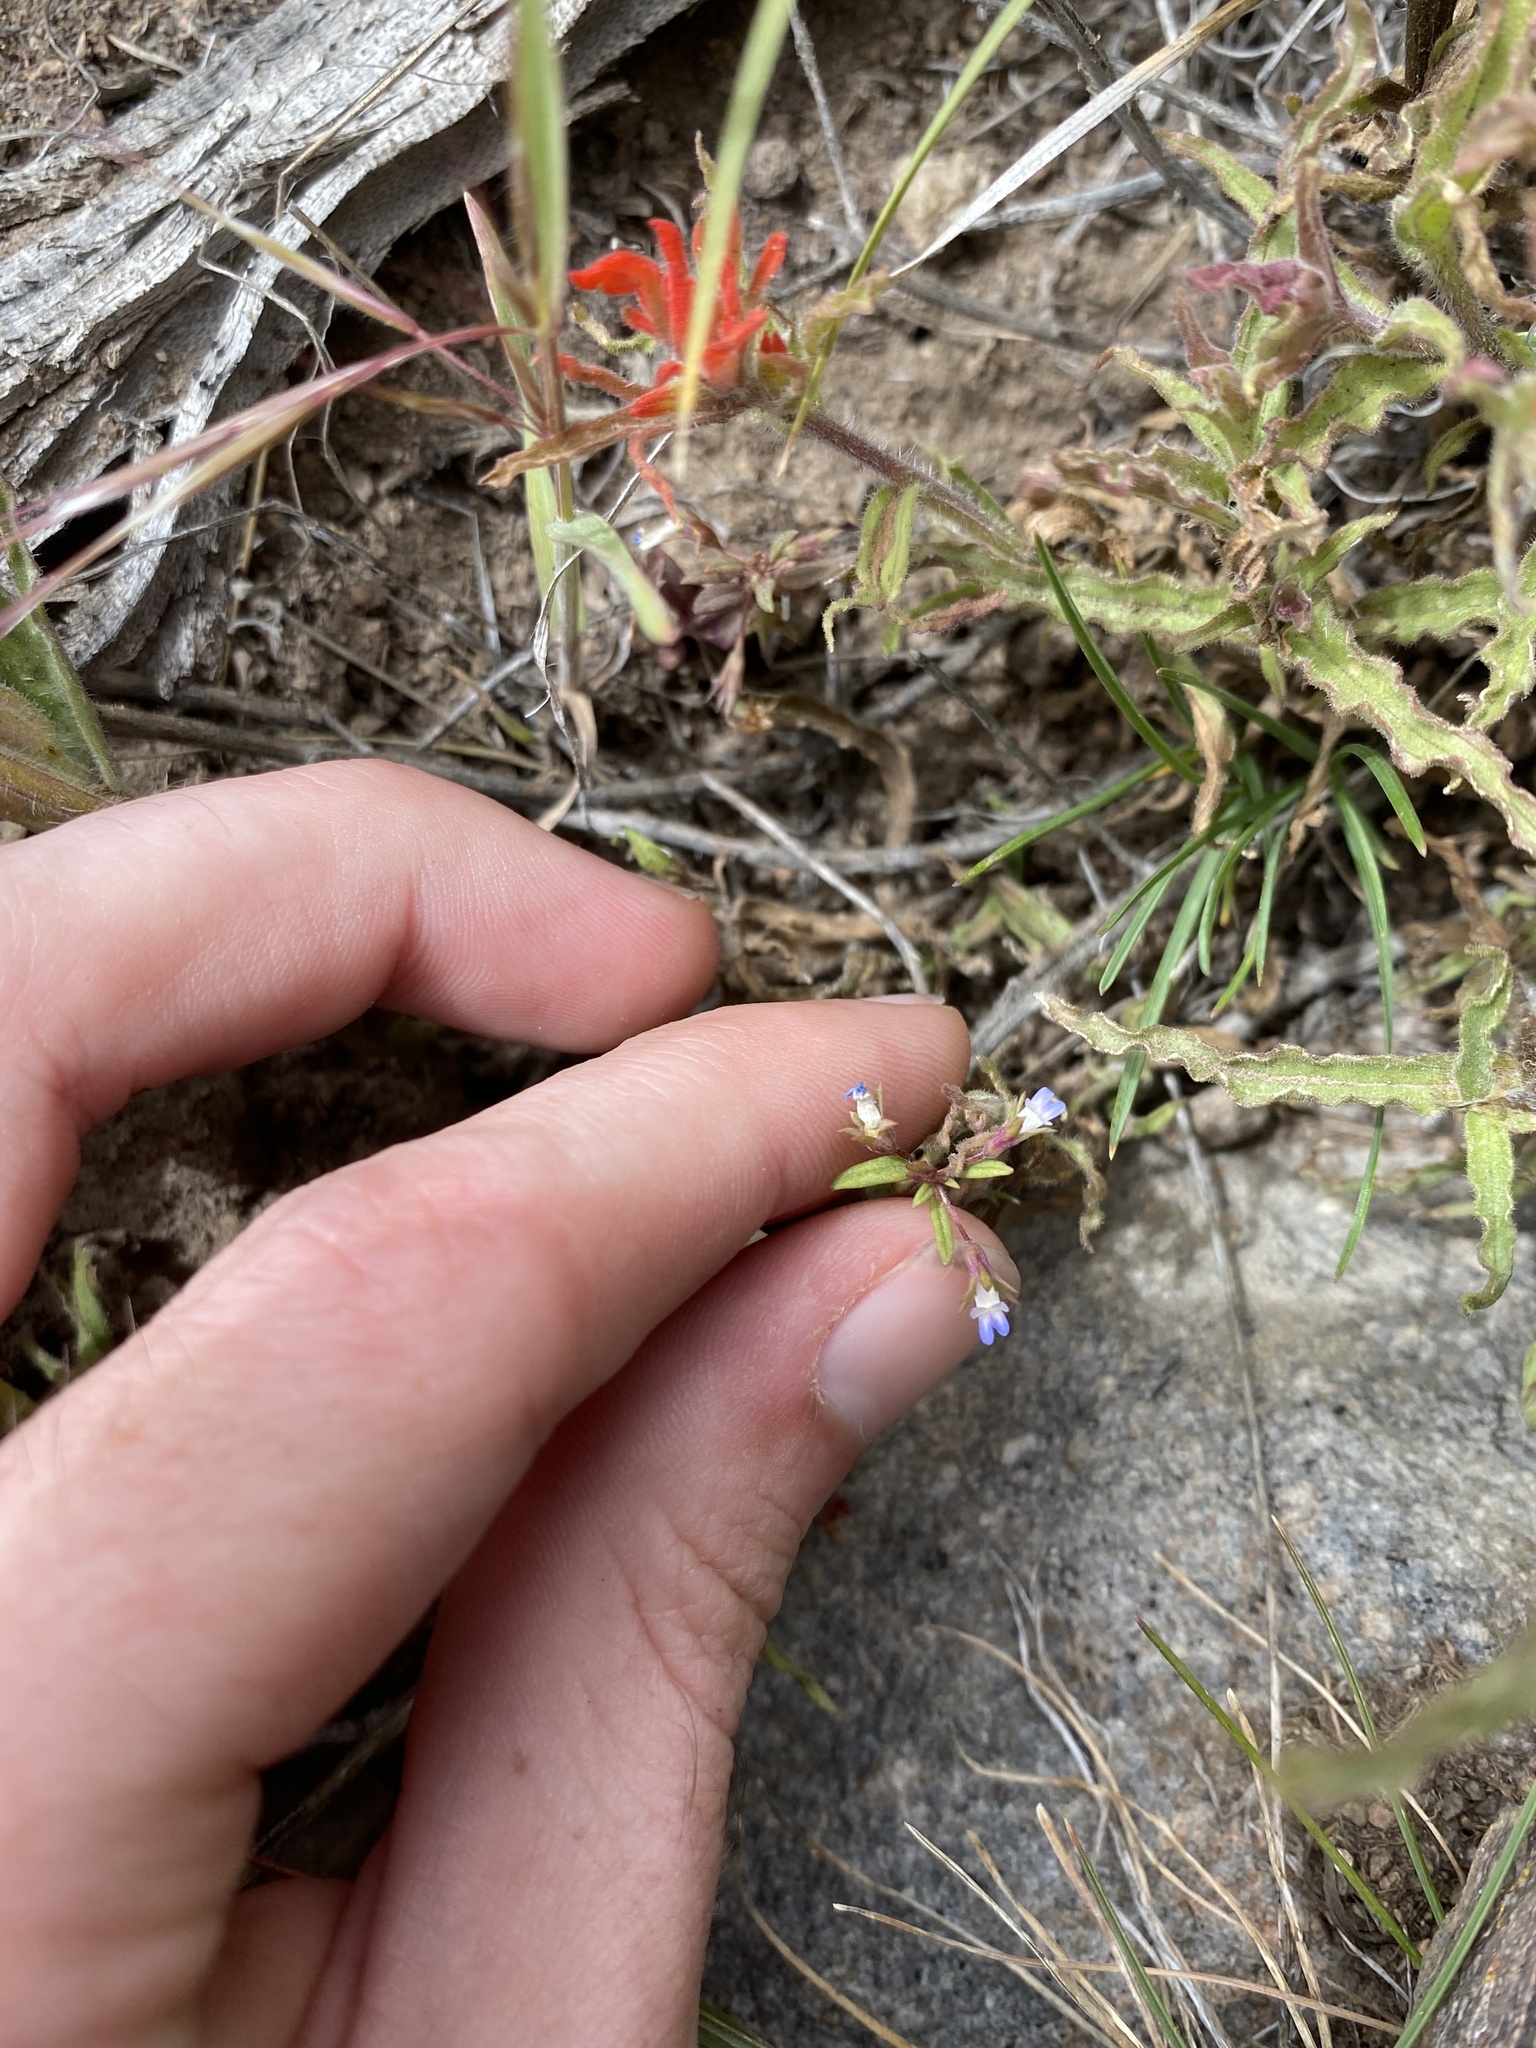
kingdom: Plantae
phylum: Tracheophyta
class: Magnoliopsida
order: Lamiales
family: Plantaginaceae
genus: Collinsia
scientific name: Collinsia parviflora
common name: Blue-lips
